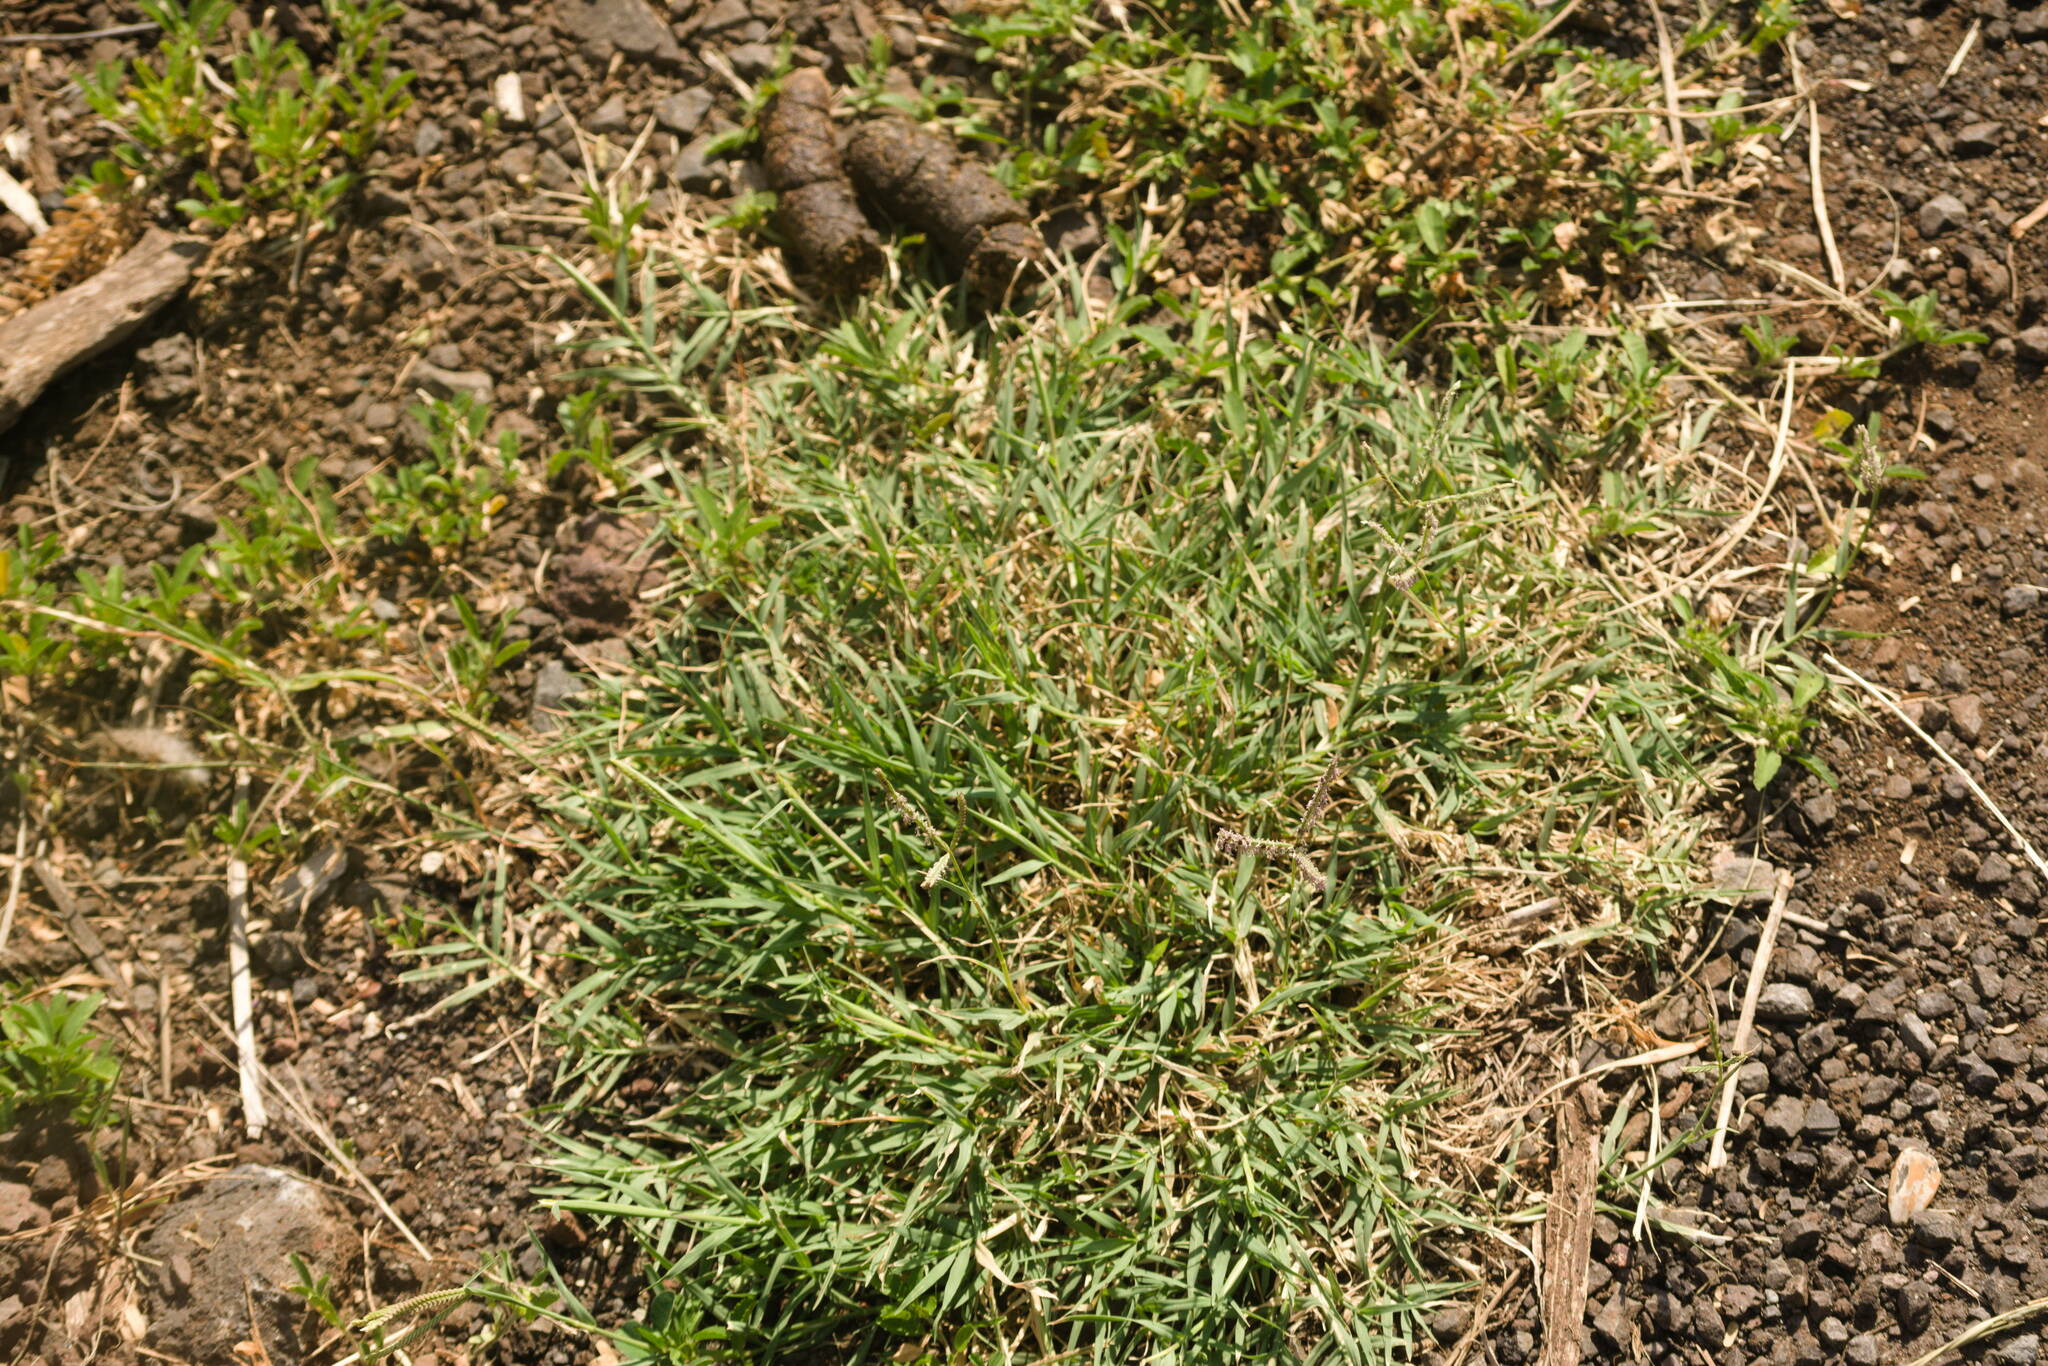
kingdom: Plantae
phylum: Tracheophyta
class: Liliopsida
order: Poales
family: Poaceae
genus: Cynodon
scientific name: Cynodon dactylon
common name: Bermuda grass
